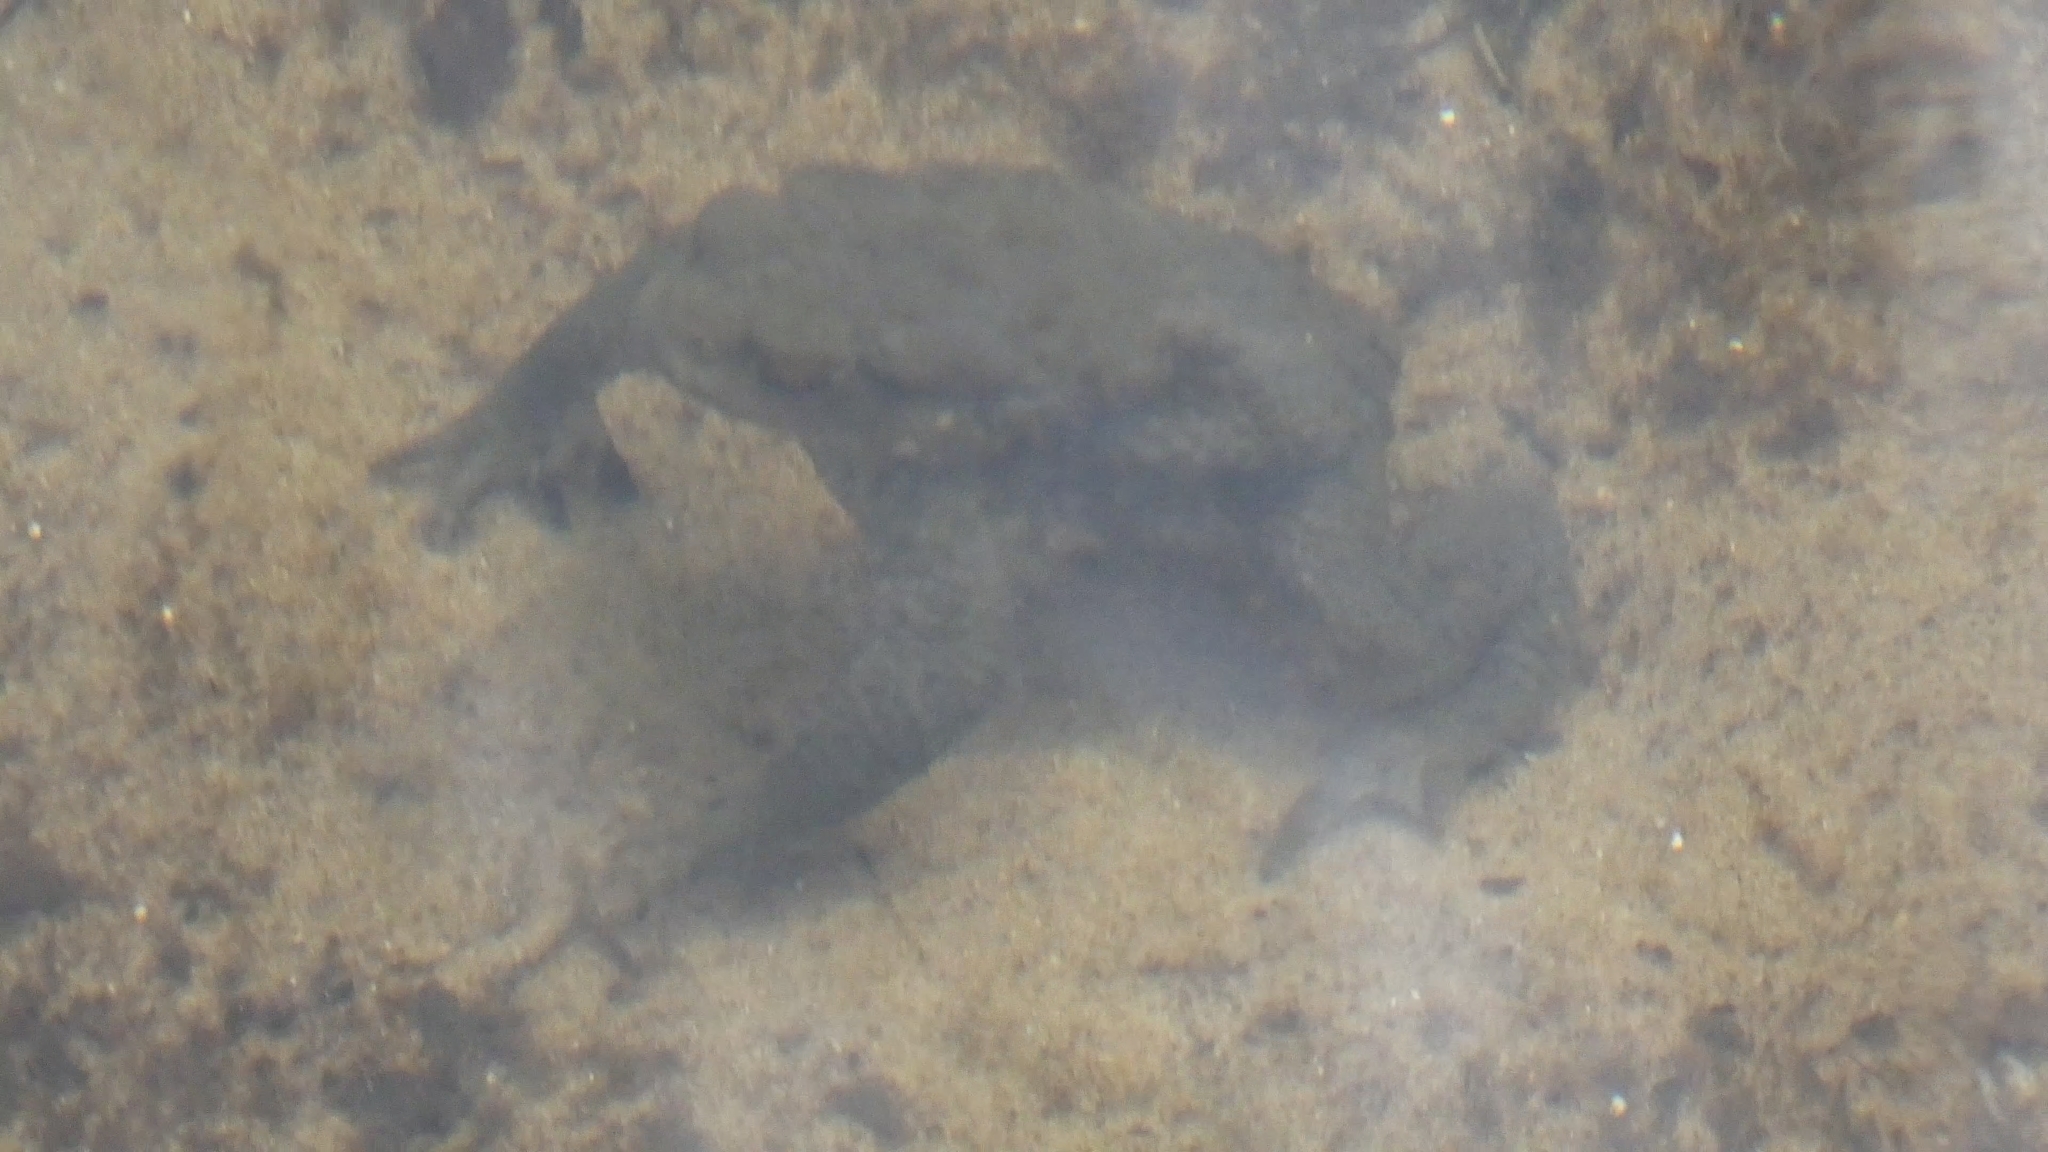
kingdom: Animalia
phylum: Chordata
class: Amphibia
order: Anura
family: Bufonidae
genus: Bufo
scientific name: Bufo bufo
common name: Common toad
